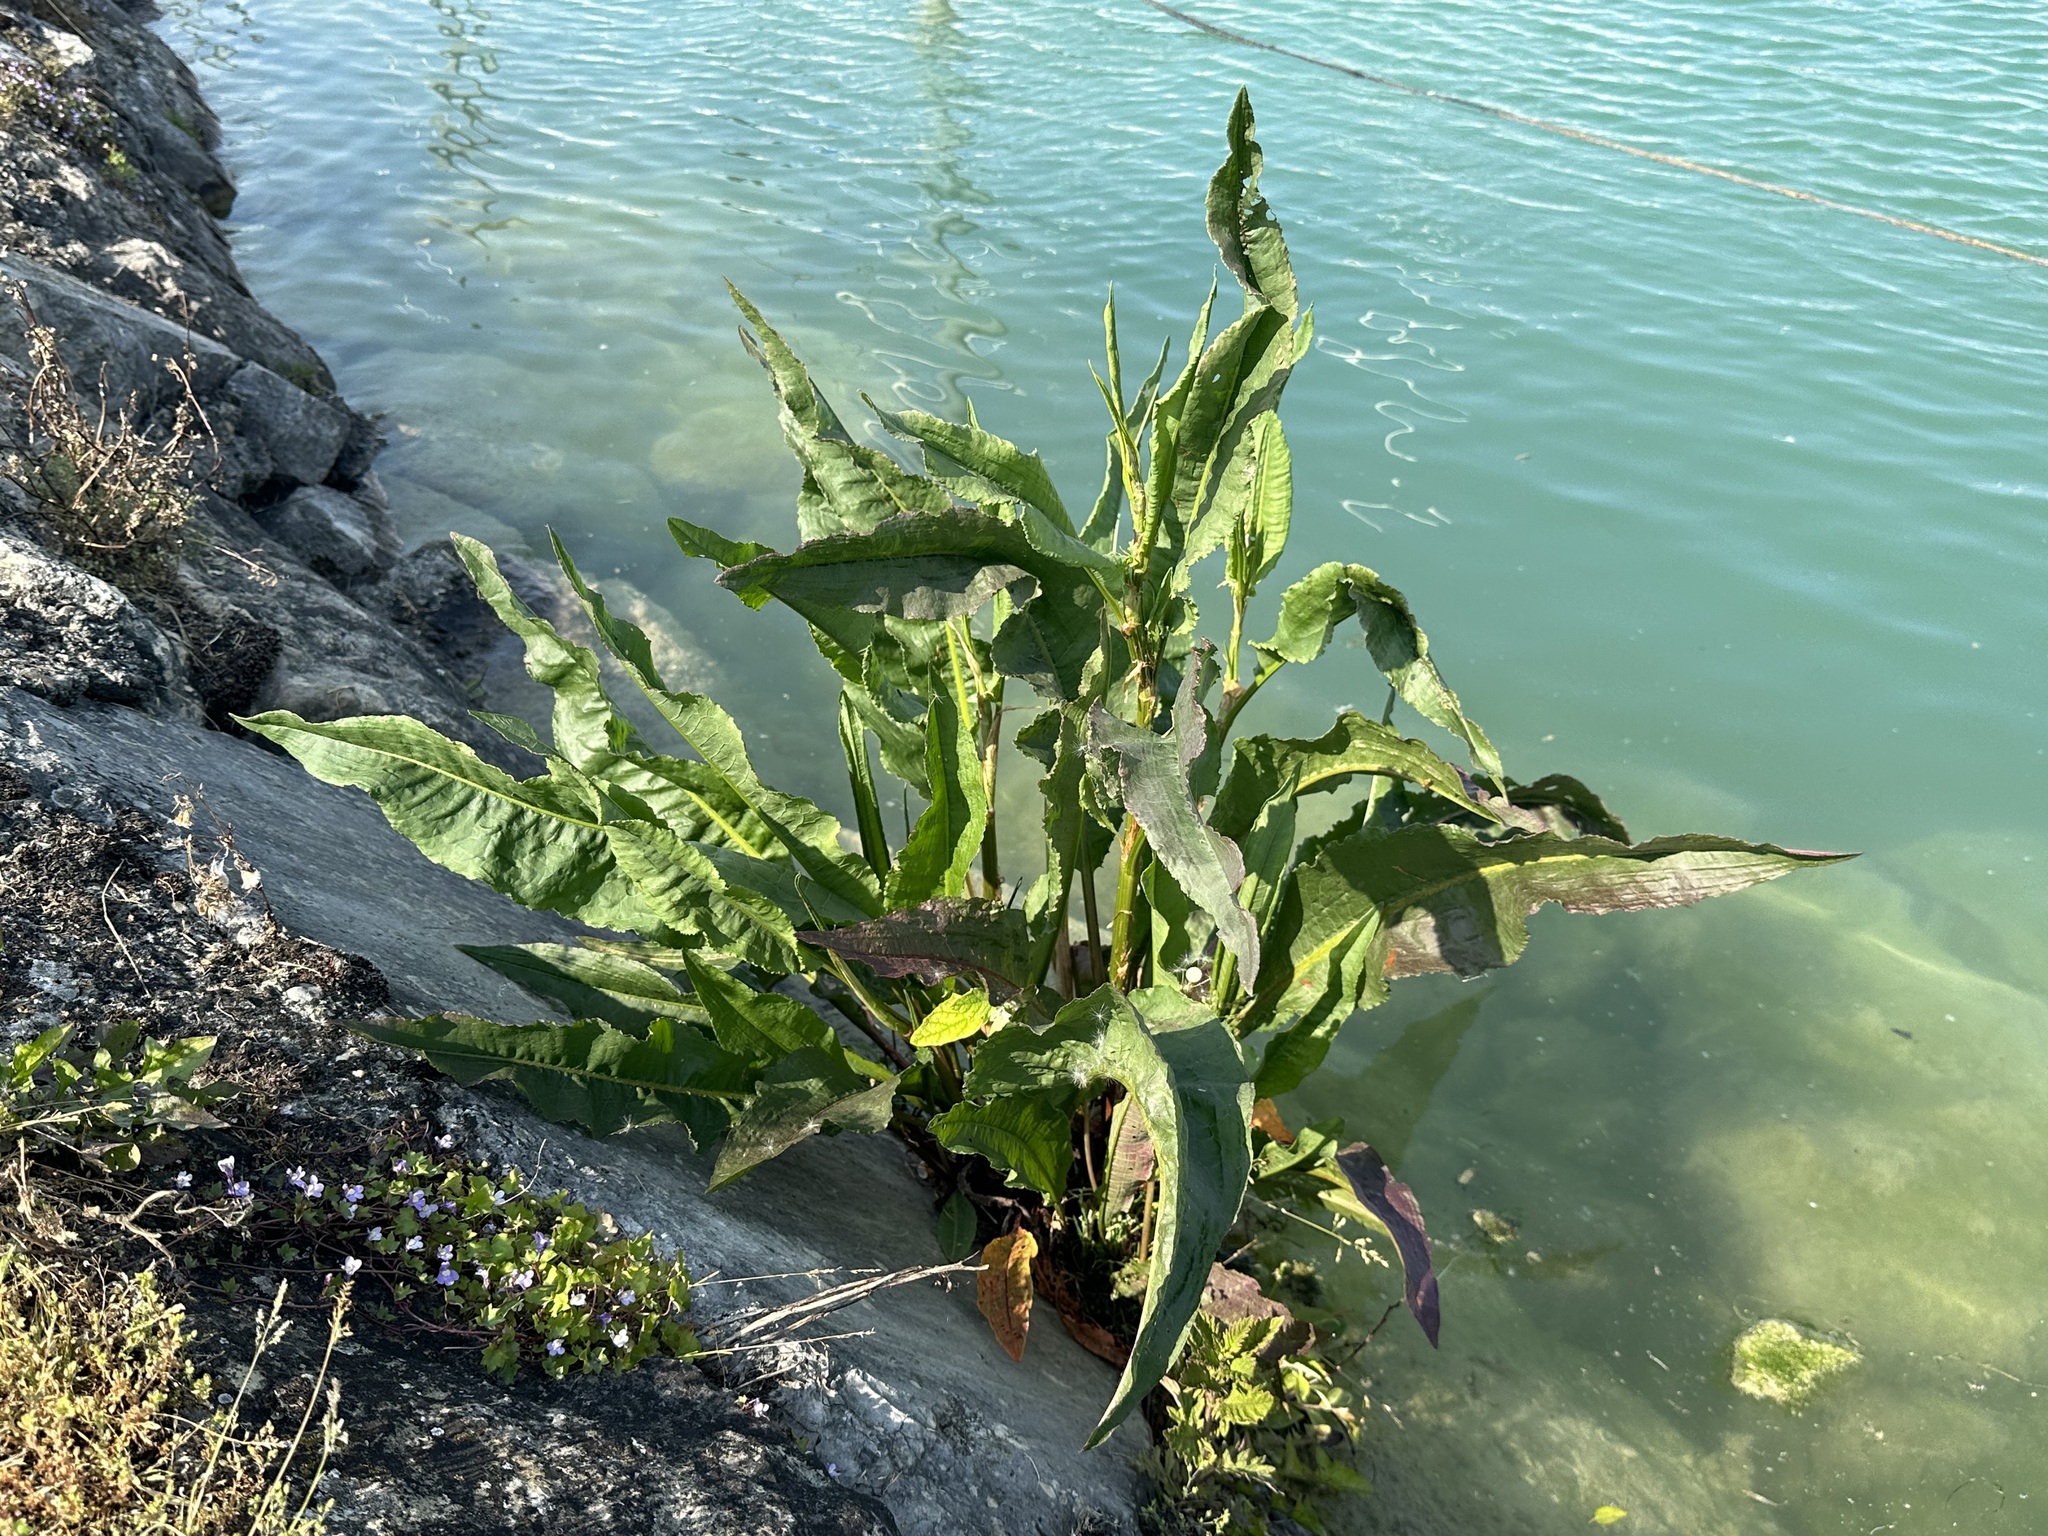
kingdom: Plantae
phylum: Tracheophyta
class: Magnoliopsida
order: Caryophyllales
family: Polygonaceae
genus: Rumex
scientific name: Rumex hydrolapathum
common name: Water dock
